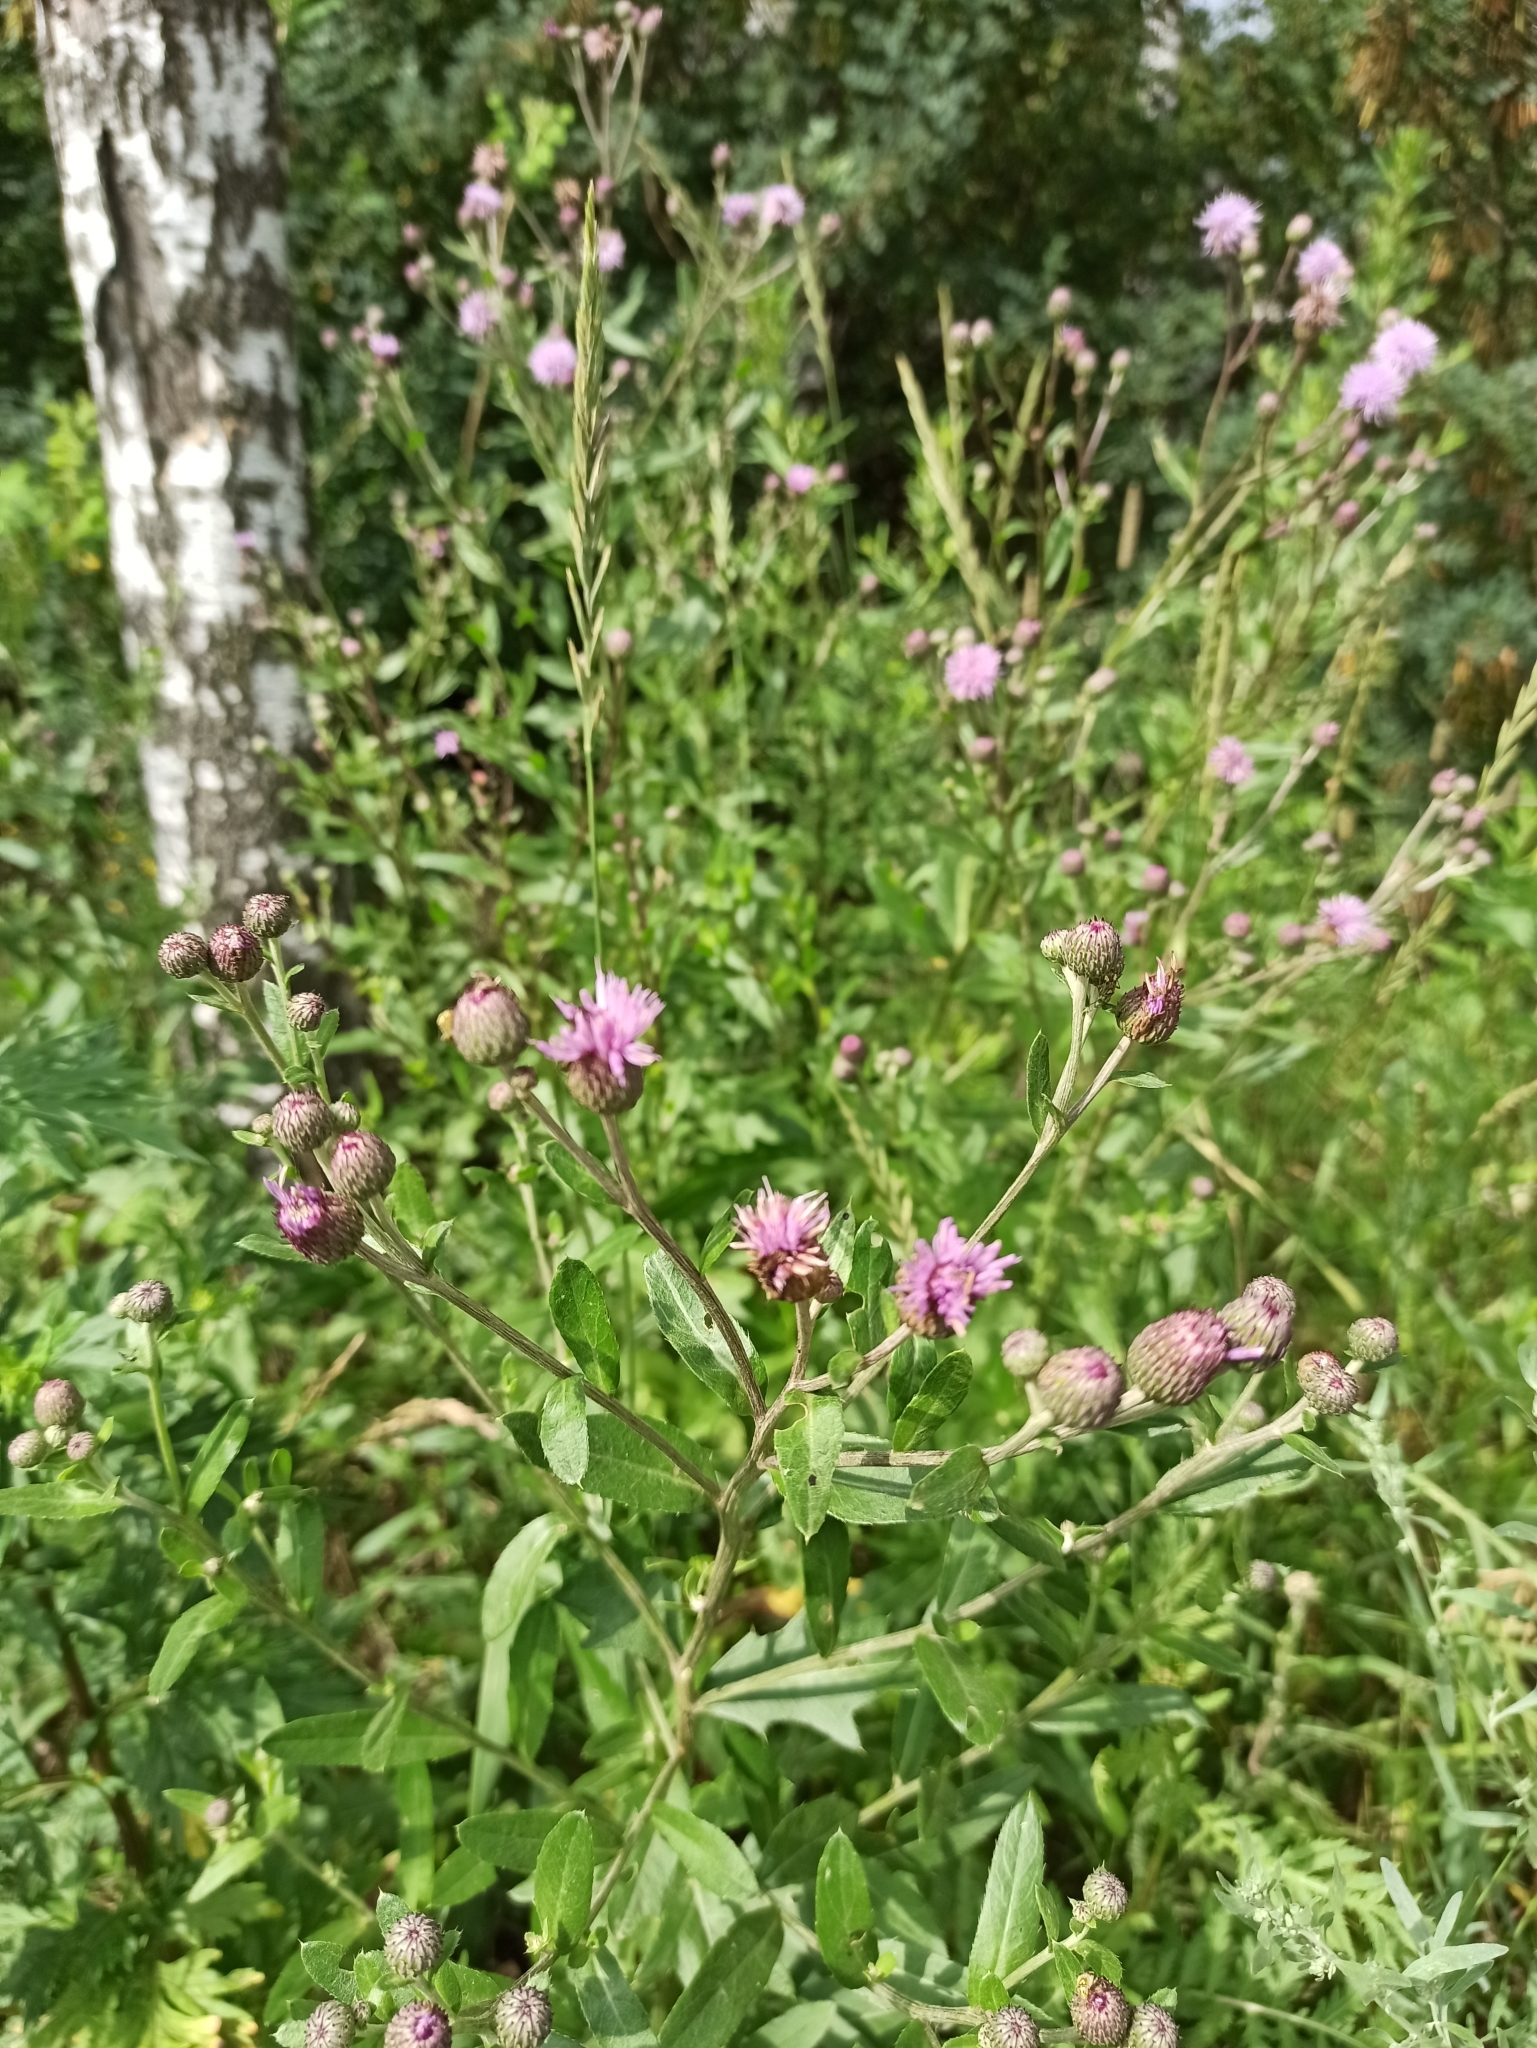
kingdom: Plantae
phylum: Tracheophyta
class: Magnoliopsida
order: Asterales
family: Asteraceae
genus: Cirsium
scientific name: Cirsium arvense
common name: Creeping thistle
